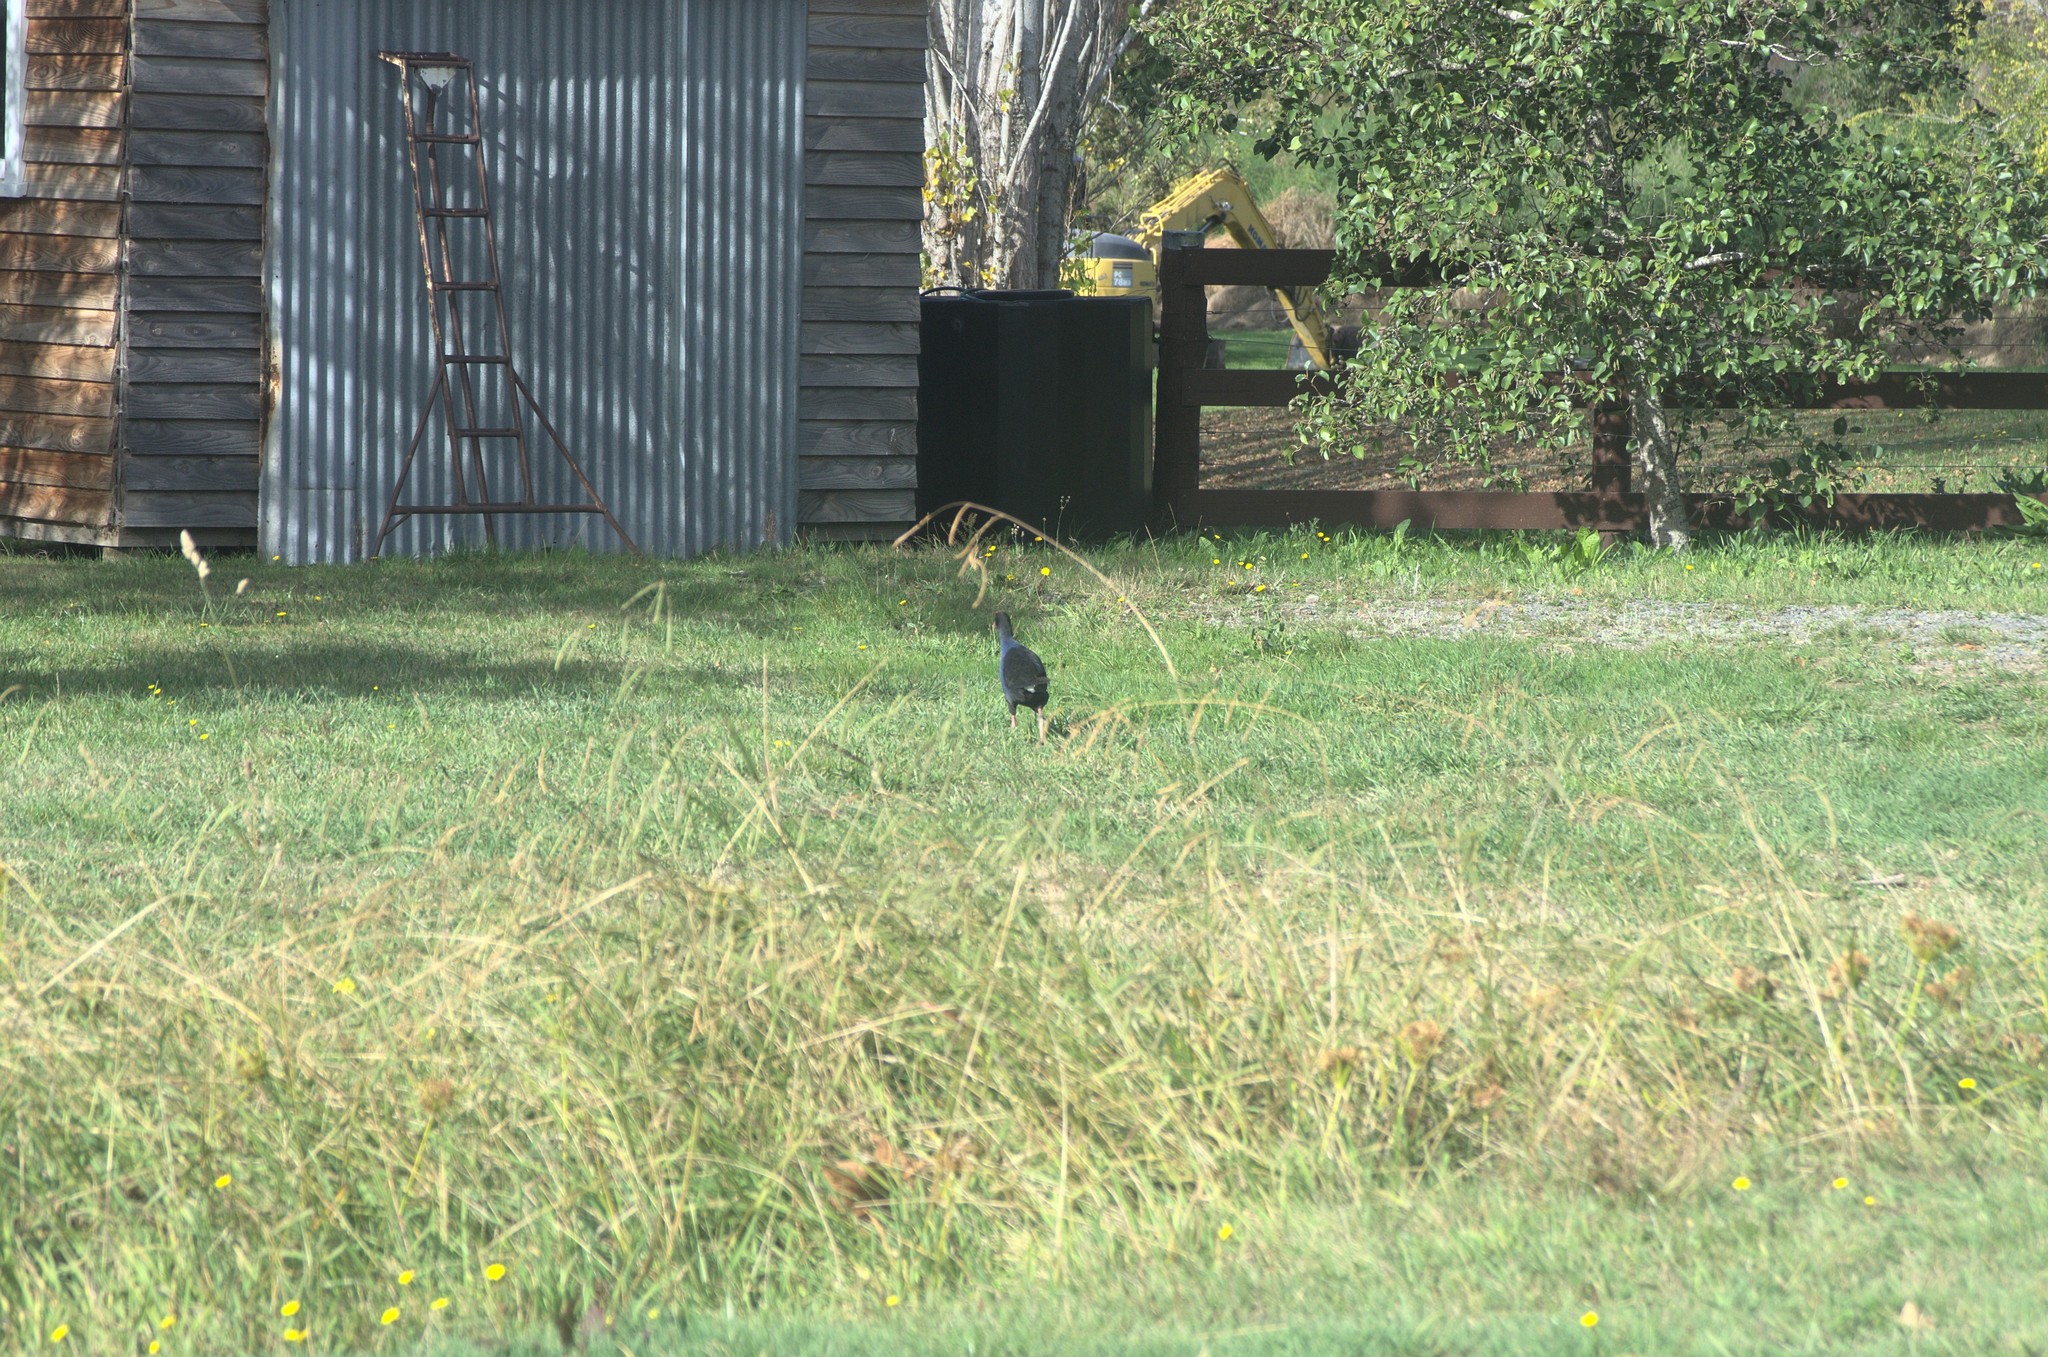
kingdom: Animalia
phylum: Chordata
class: Aves
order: Gruiformes
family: Rallidae
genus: Porphyrio
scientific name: Porphyrio melanotus
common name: Australasian swamphen
